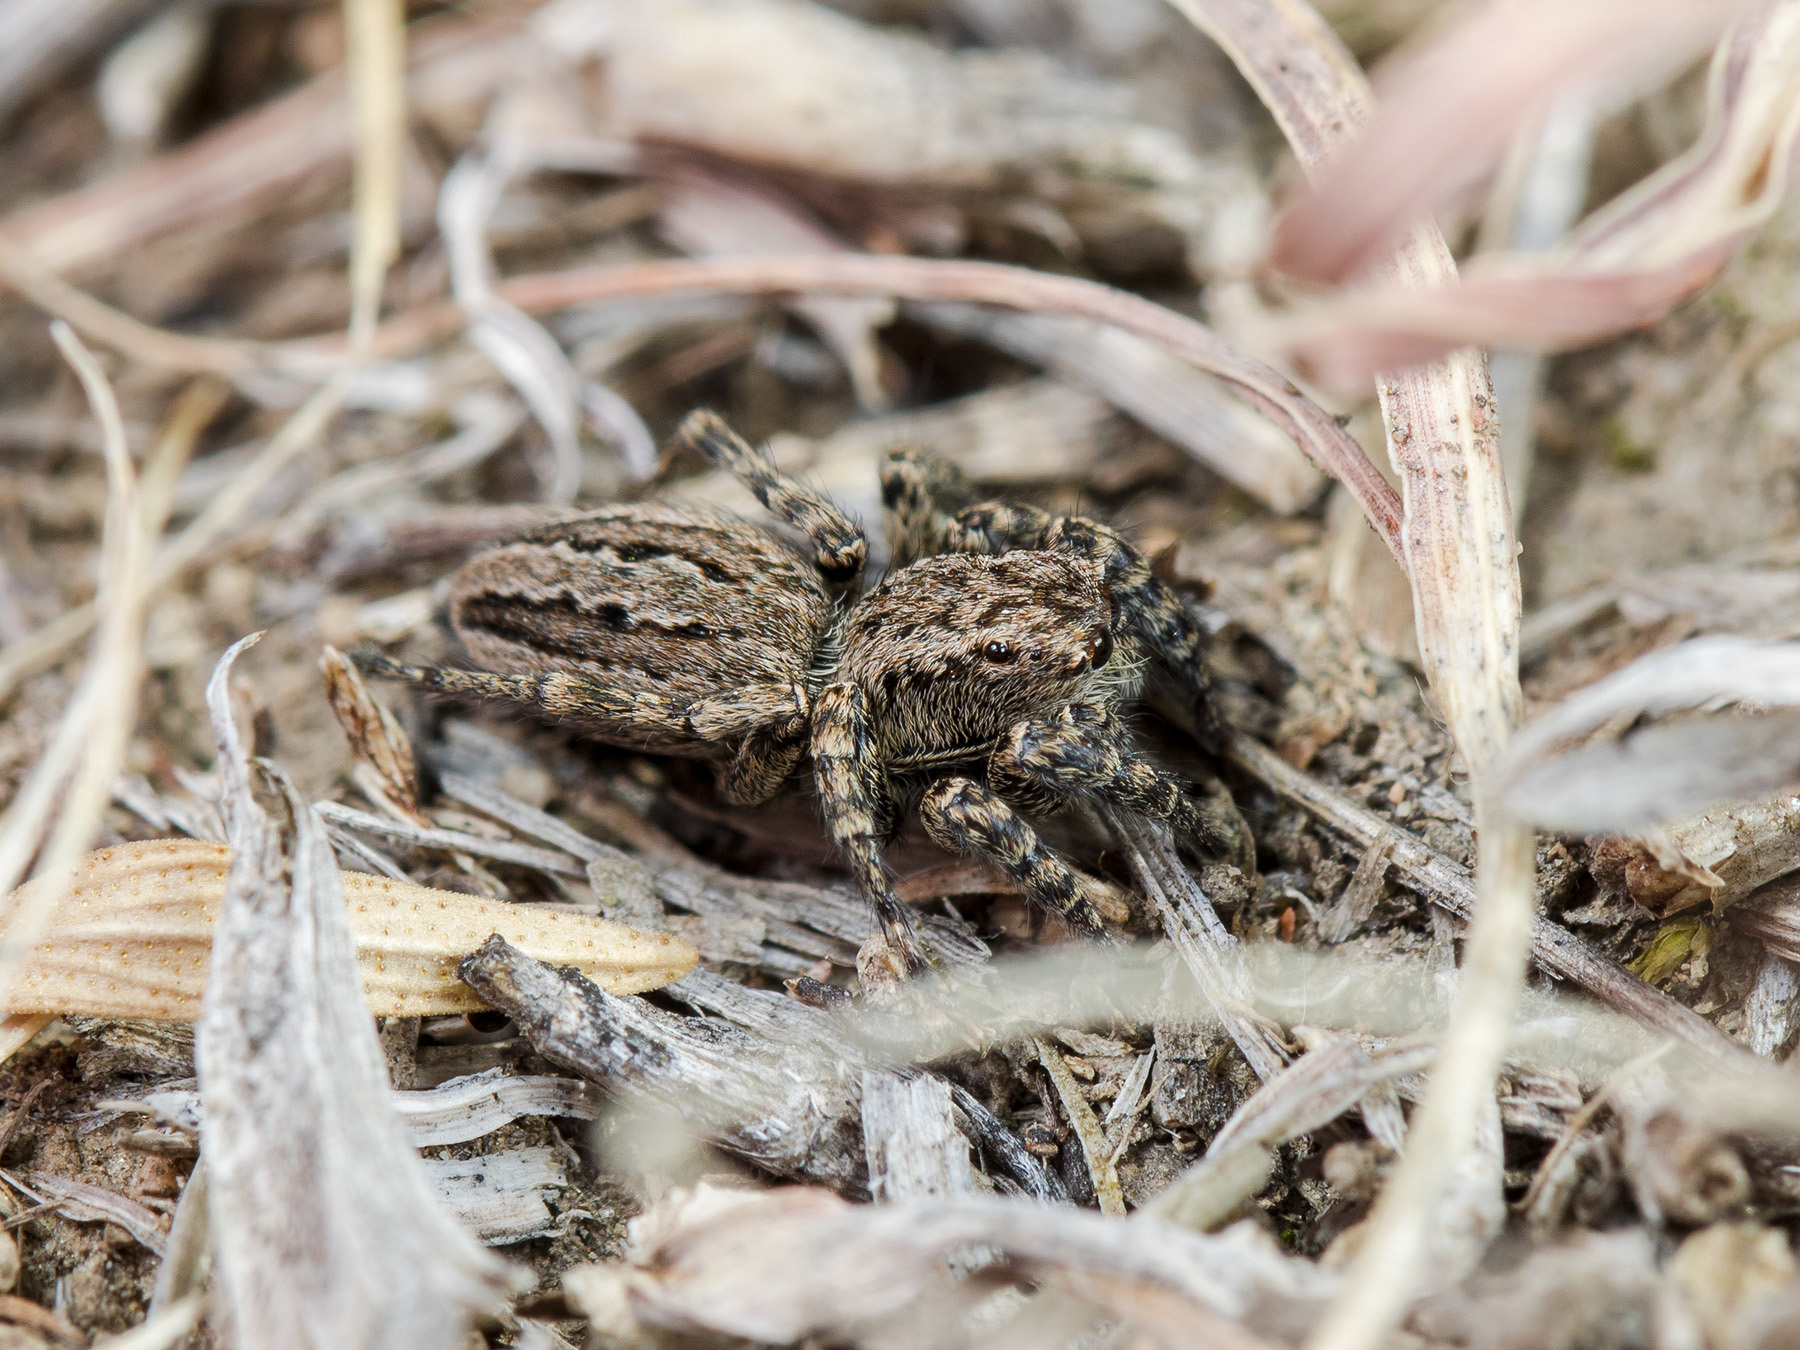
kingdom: Animalia
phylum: Arthropoda
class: Arachnida
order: Araneae
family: Salticidae
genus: Phlegra
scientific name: Phlegra obscurimagna
